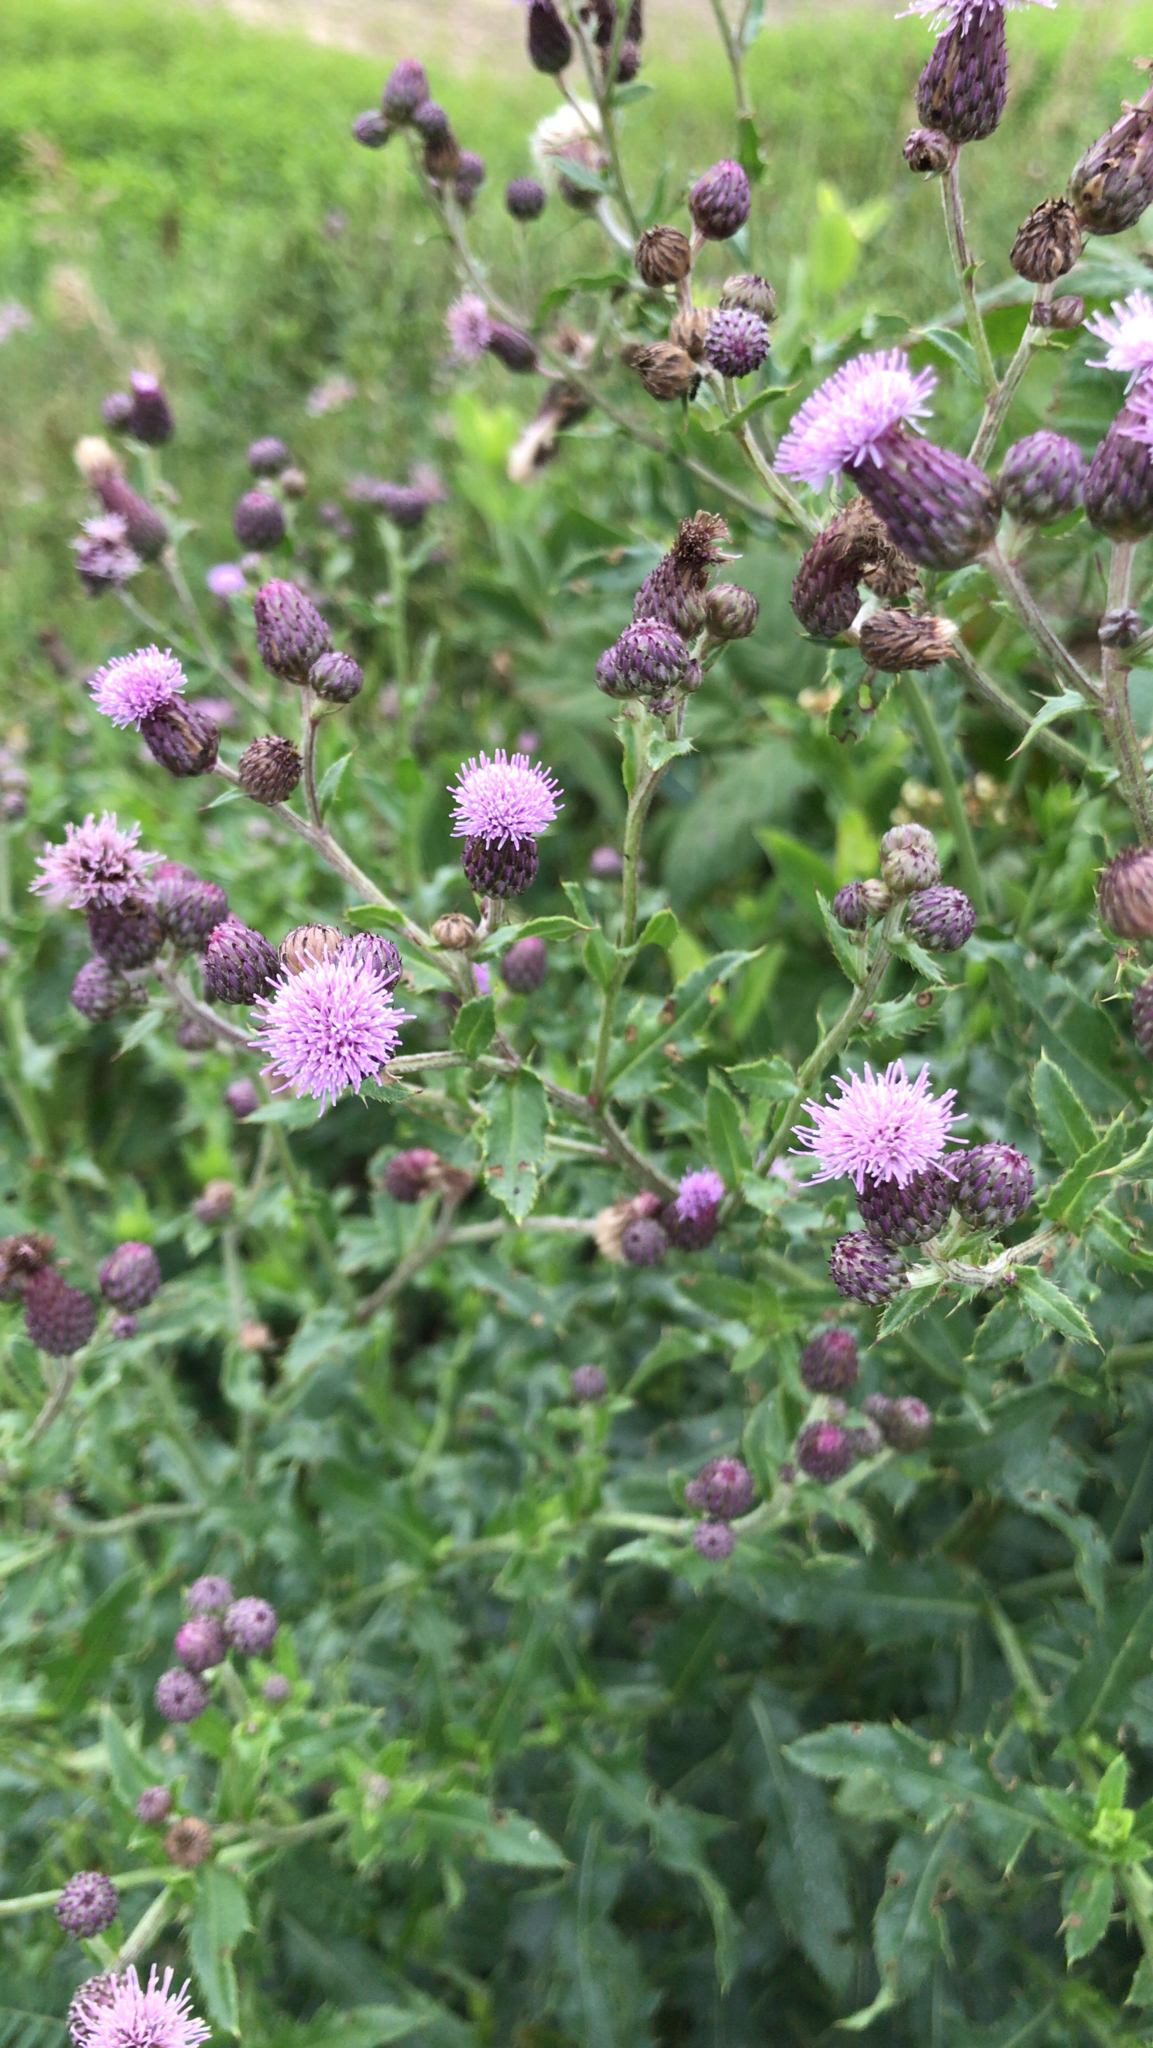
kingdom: Plantae
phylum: Tracheophyta
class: Magnoliopsida
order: Asterales
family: Asteraceae
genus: Cirsium
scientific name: Cirsium arvense
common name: Creeping thistle
